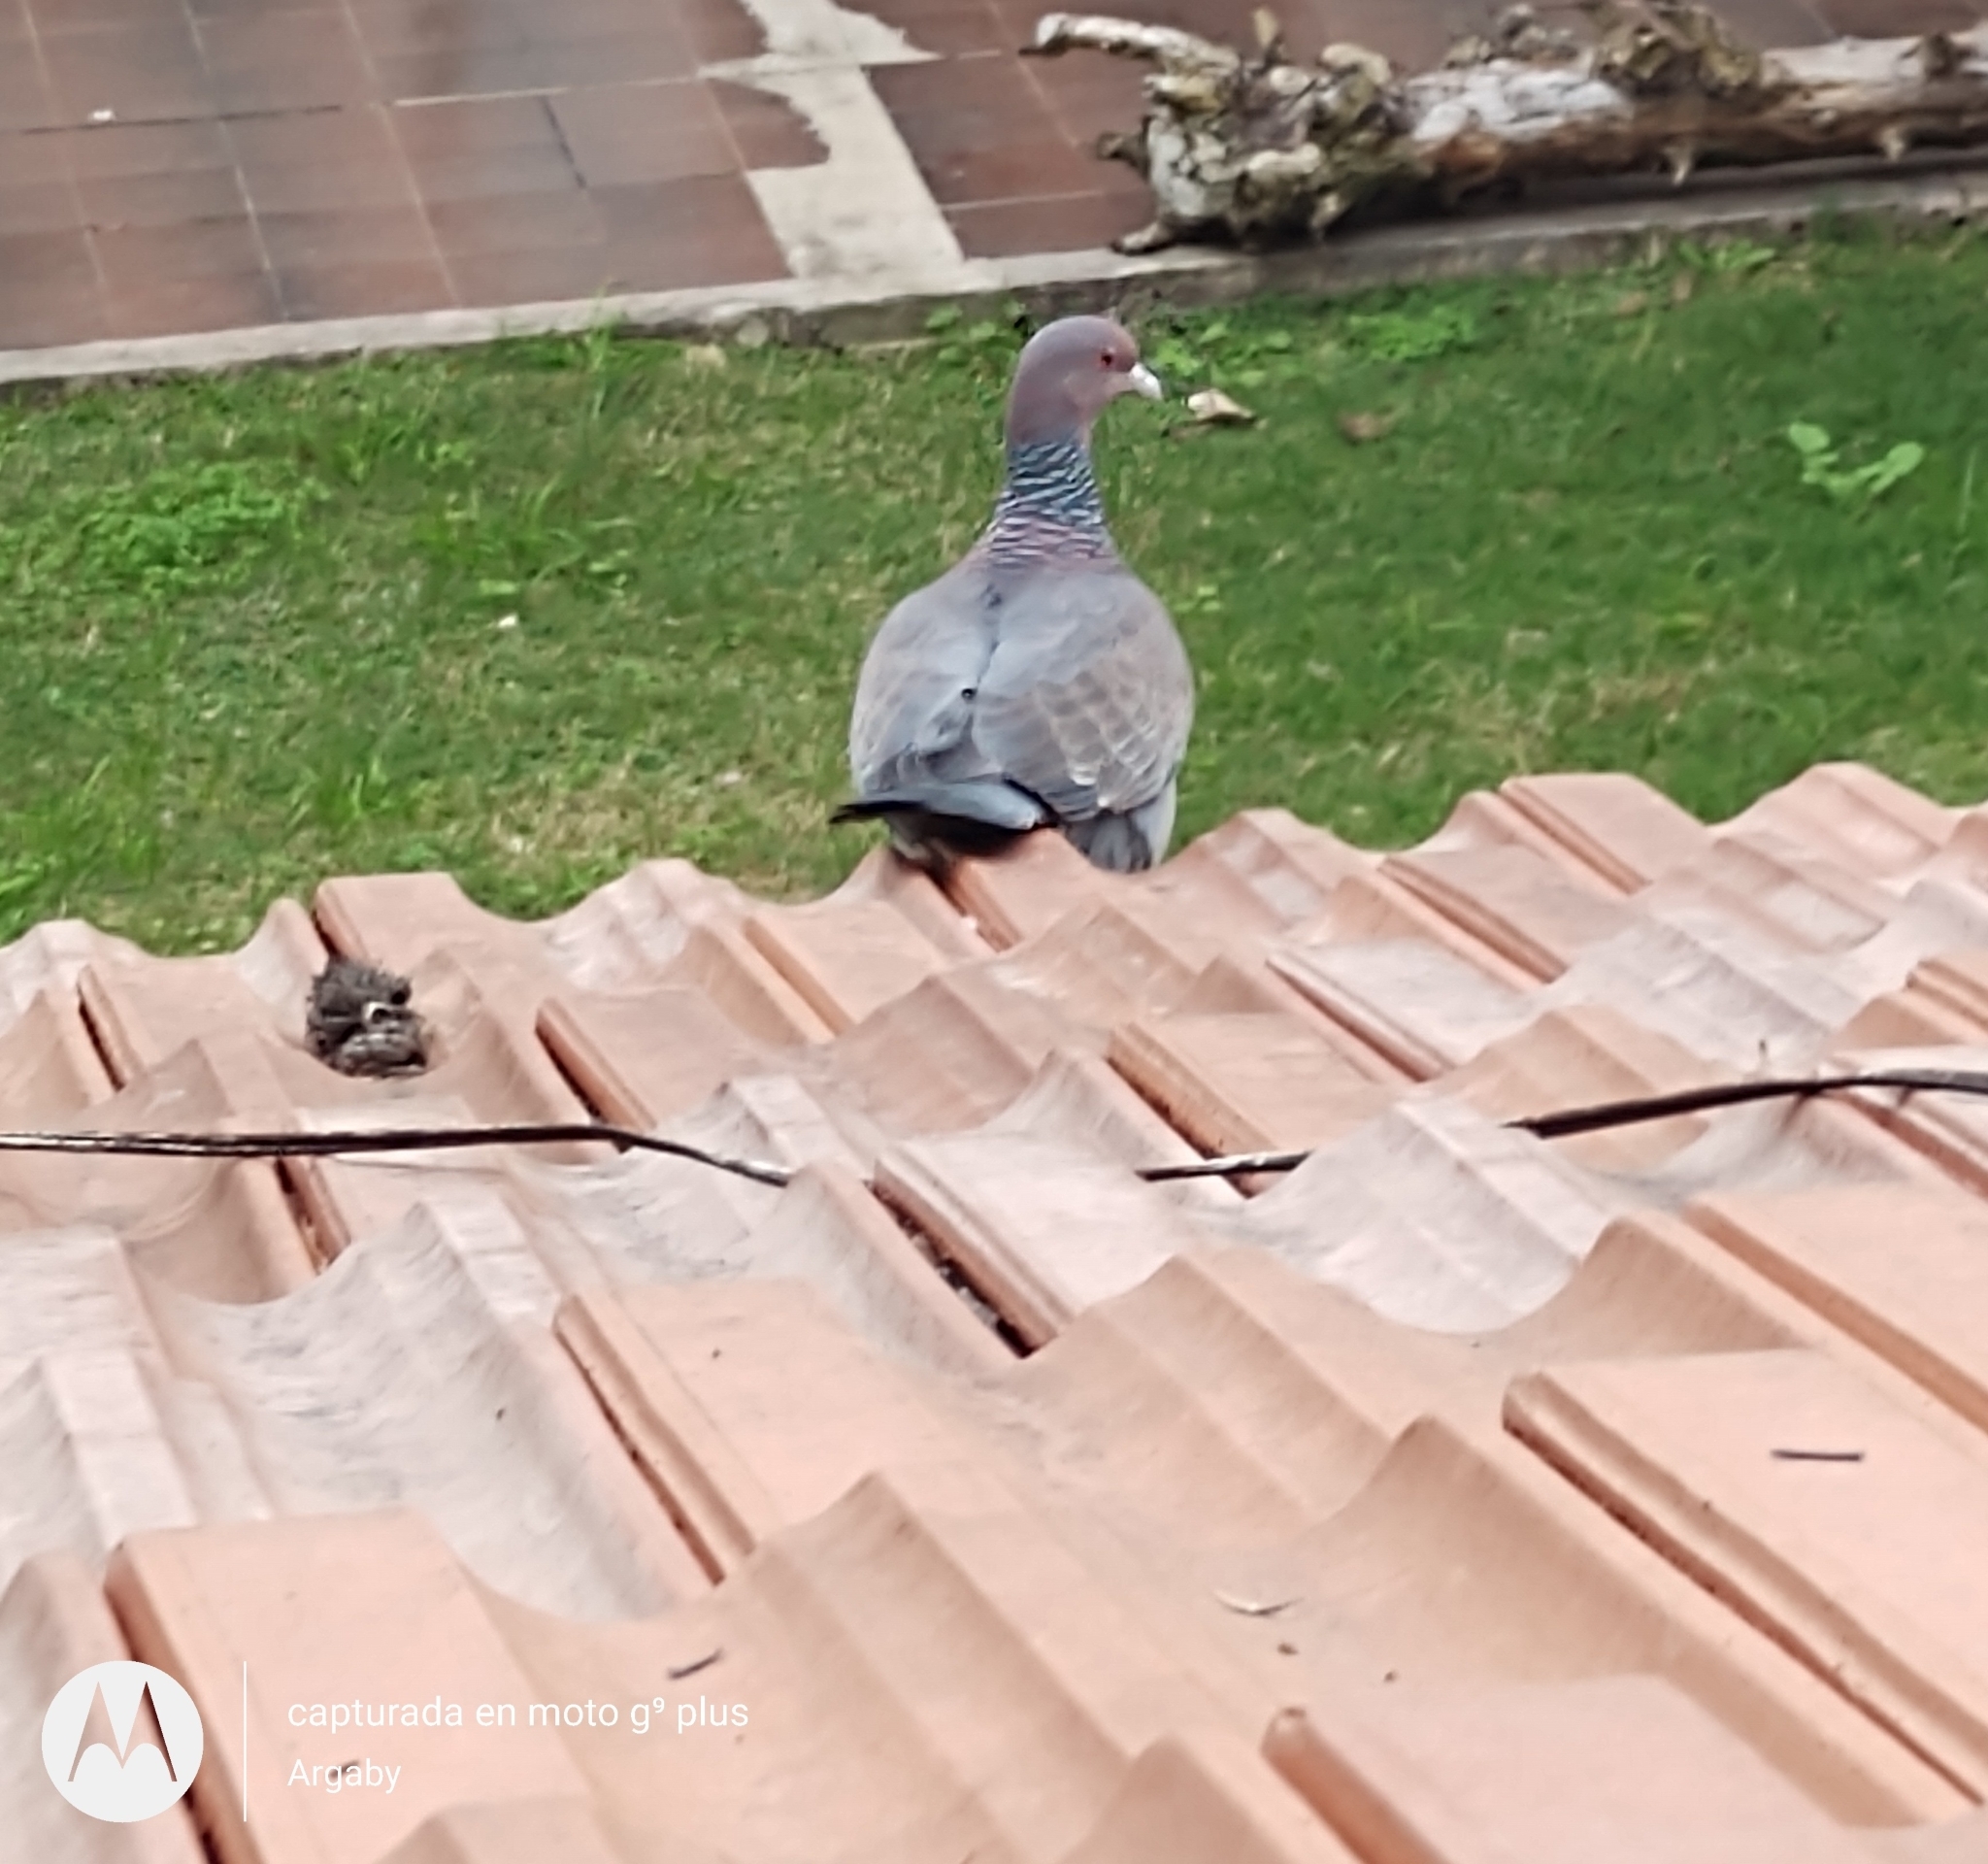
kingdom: Animalia
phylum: Chordata
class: Aves
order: Columbiformes
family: Columbidae
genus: Patagioenas
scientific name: Patagioenas picazuro
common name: Picazuro pigeon
